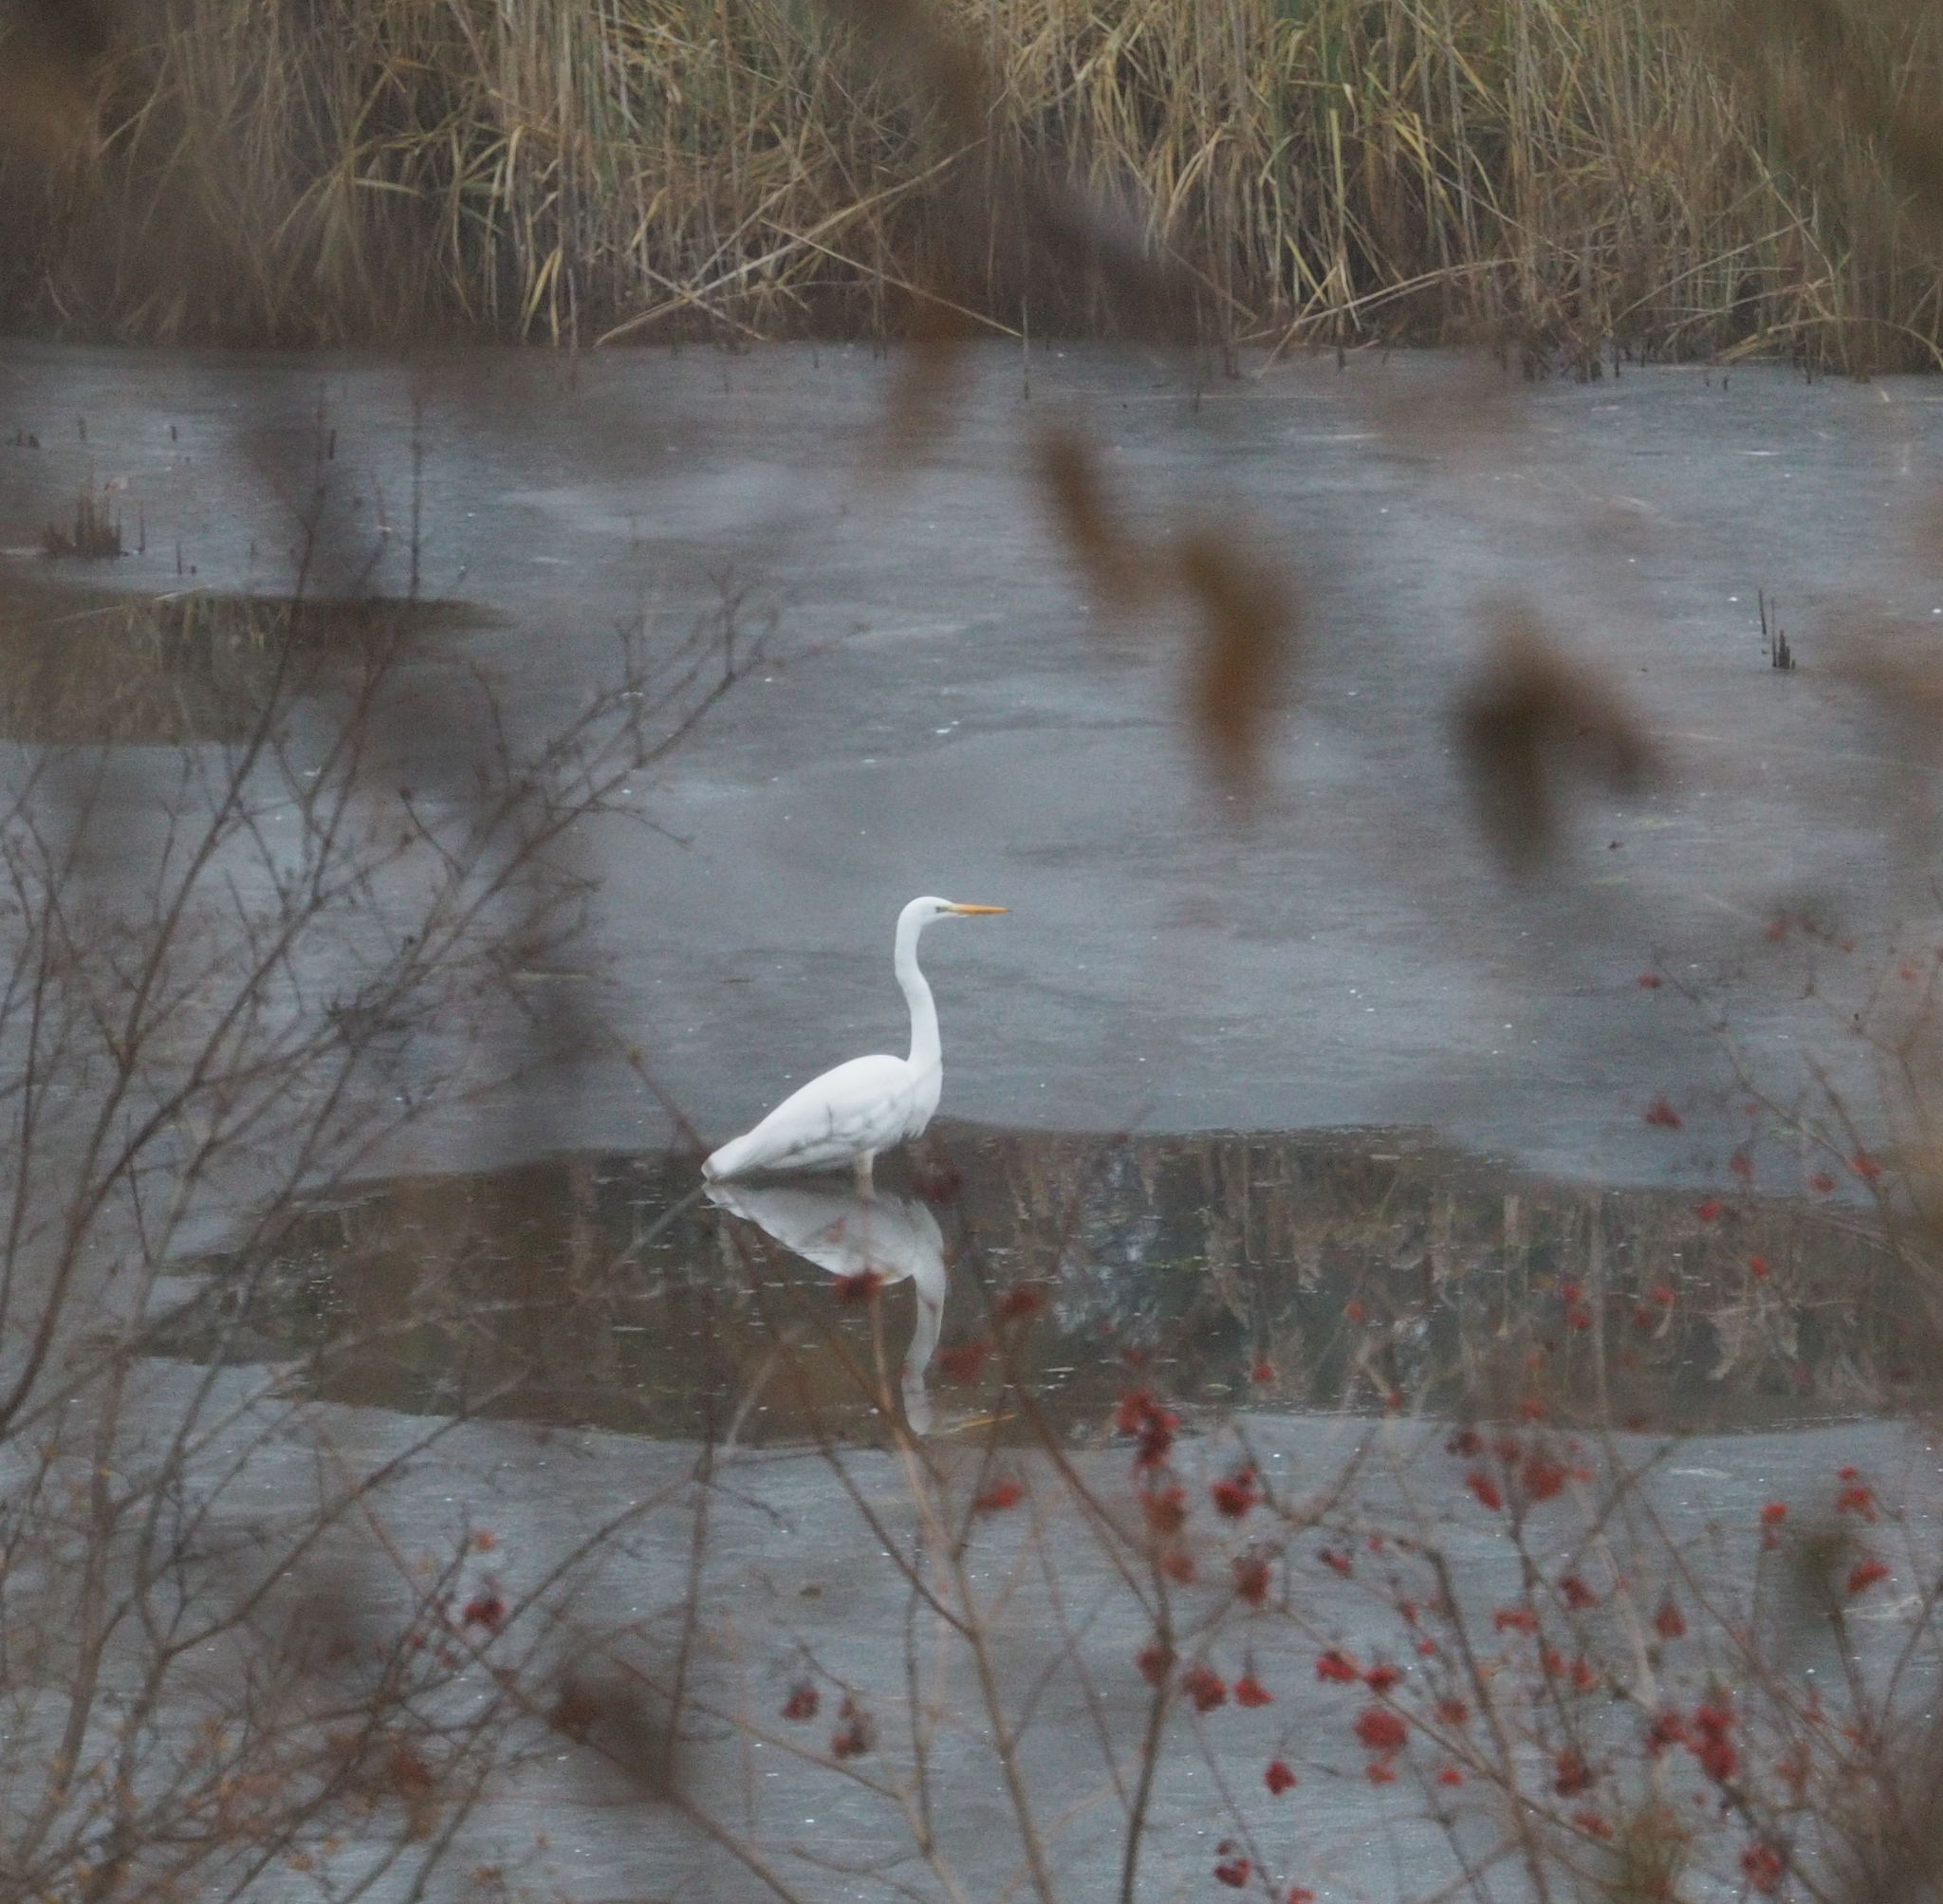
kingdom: Animalia
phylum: Chordata
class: Aves
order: Pelecaniformes
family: Ardeidae
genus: Ardea
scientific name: Ardea alba
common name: Great egret
